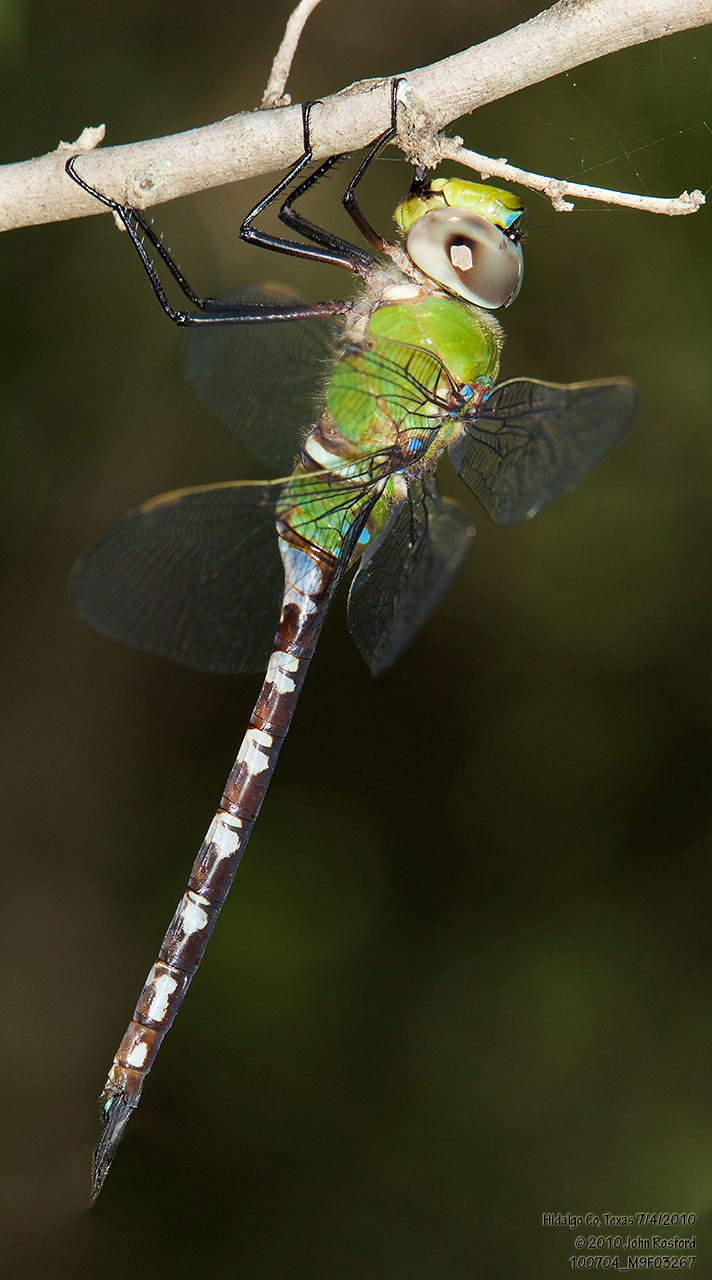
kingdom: Animalia
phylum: Arthropoda
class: Insecta
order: Odonata
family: Aeshnidae
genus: Anax
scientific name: Anax amazili
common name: Amazon darner
